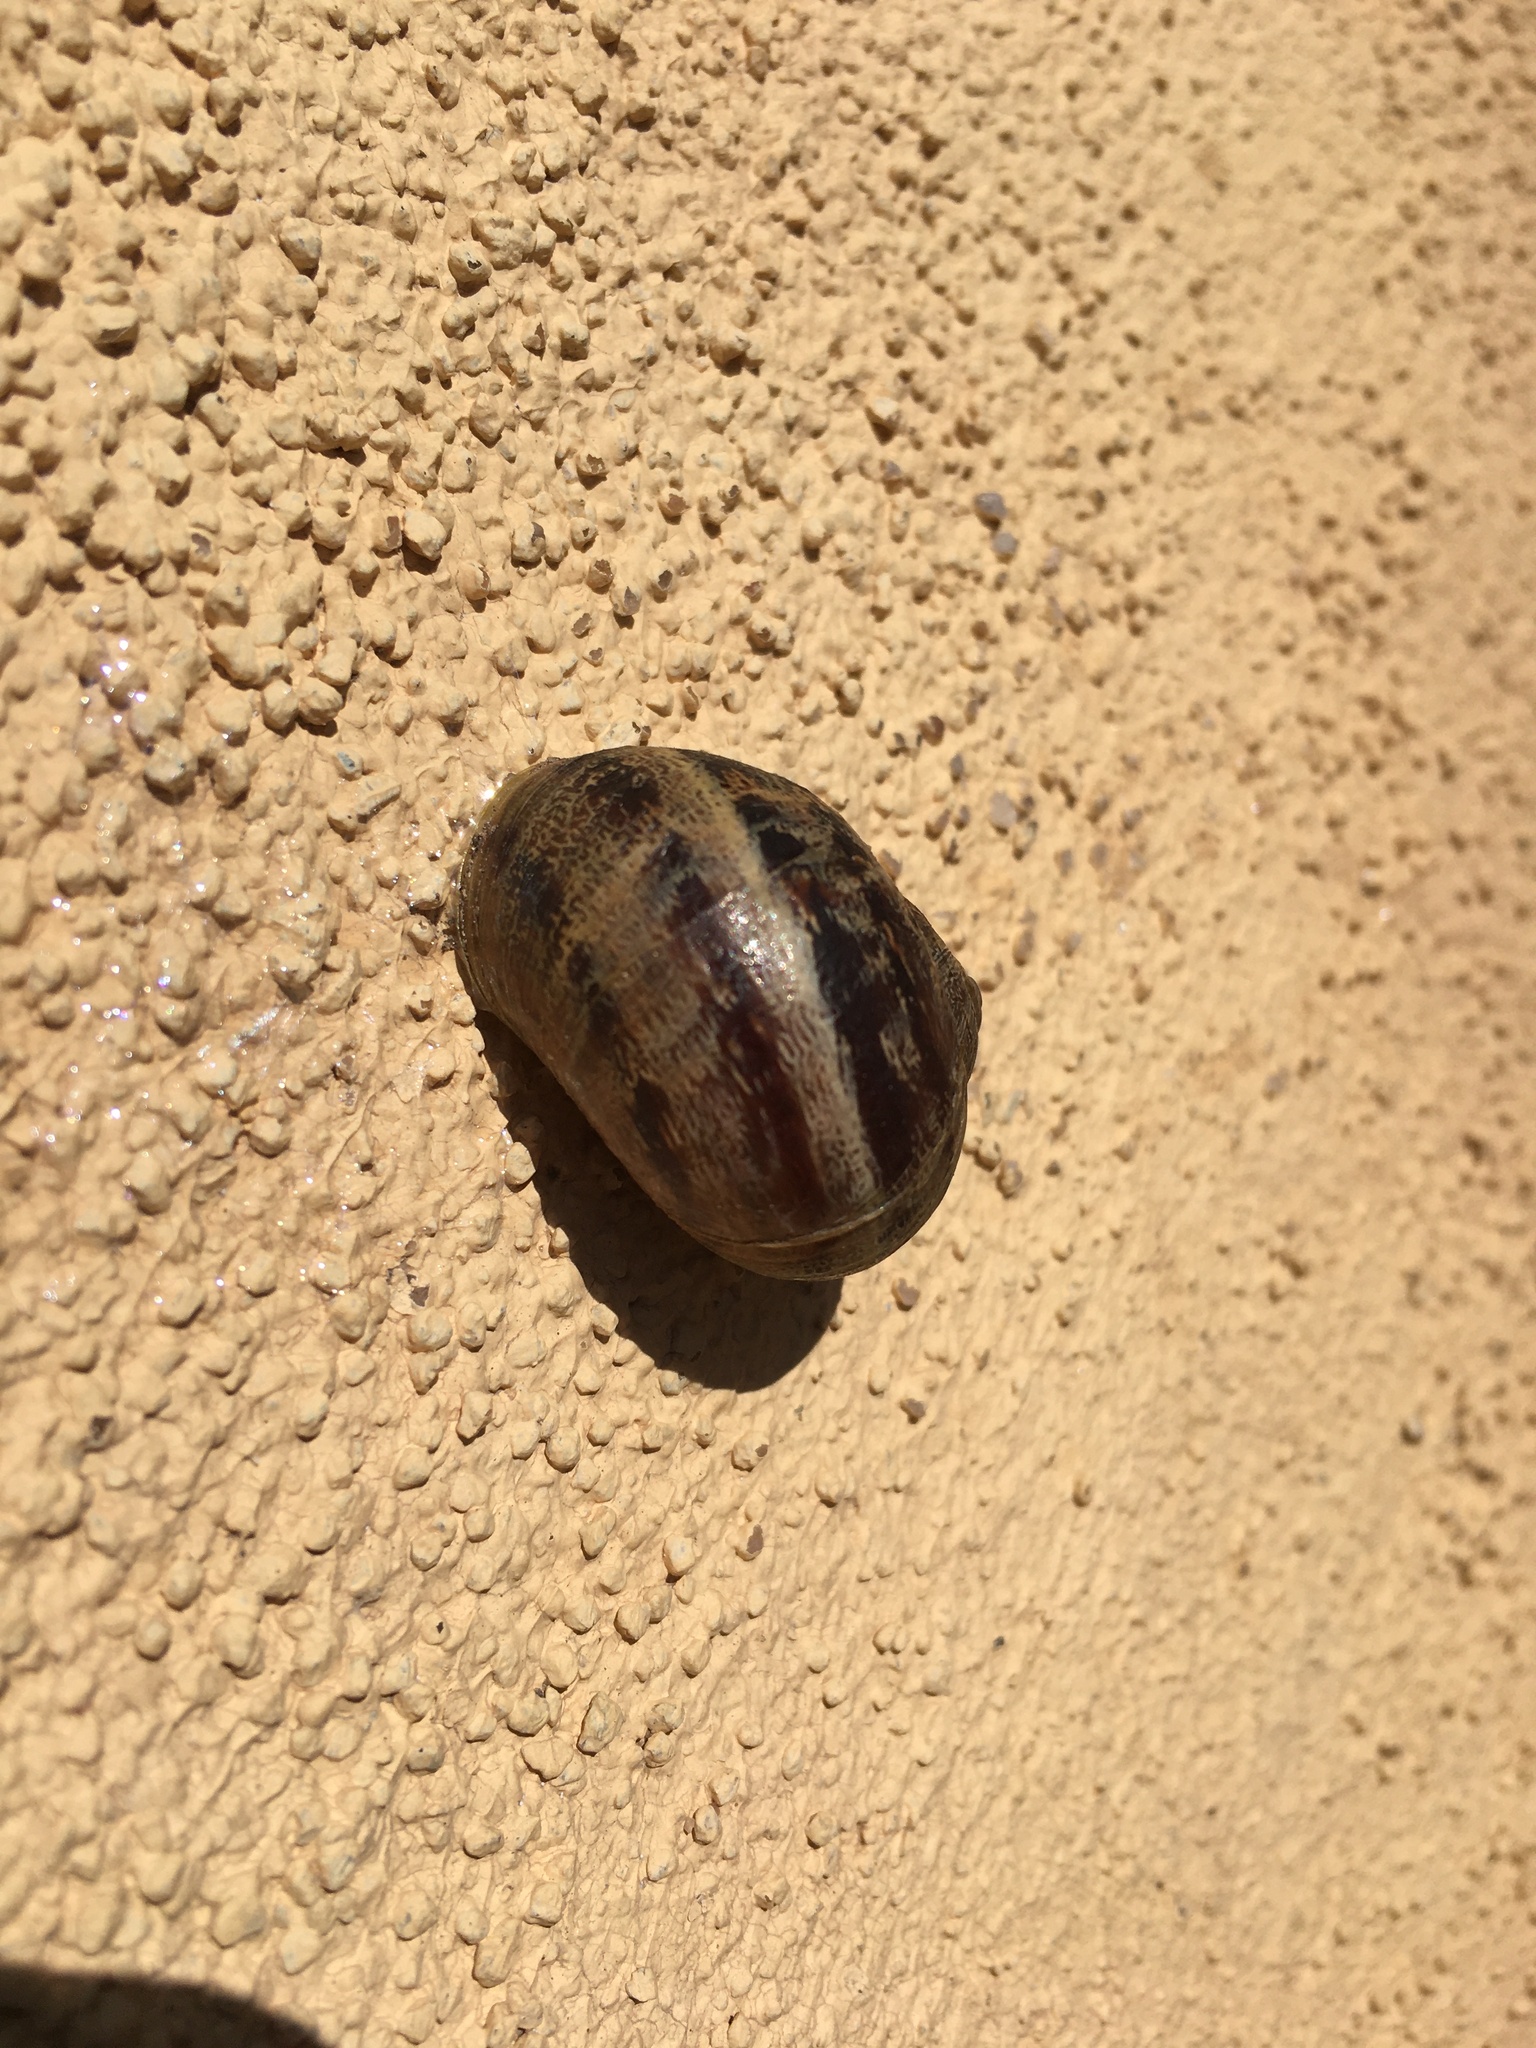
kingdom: Animalia
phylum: Mollusca
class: Gastropoda
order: Stylommatophora
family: Helicidae
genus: Cornu
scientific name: Cornu aspersum
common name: Brown garden snail
